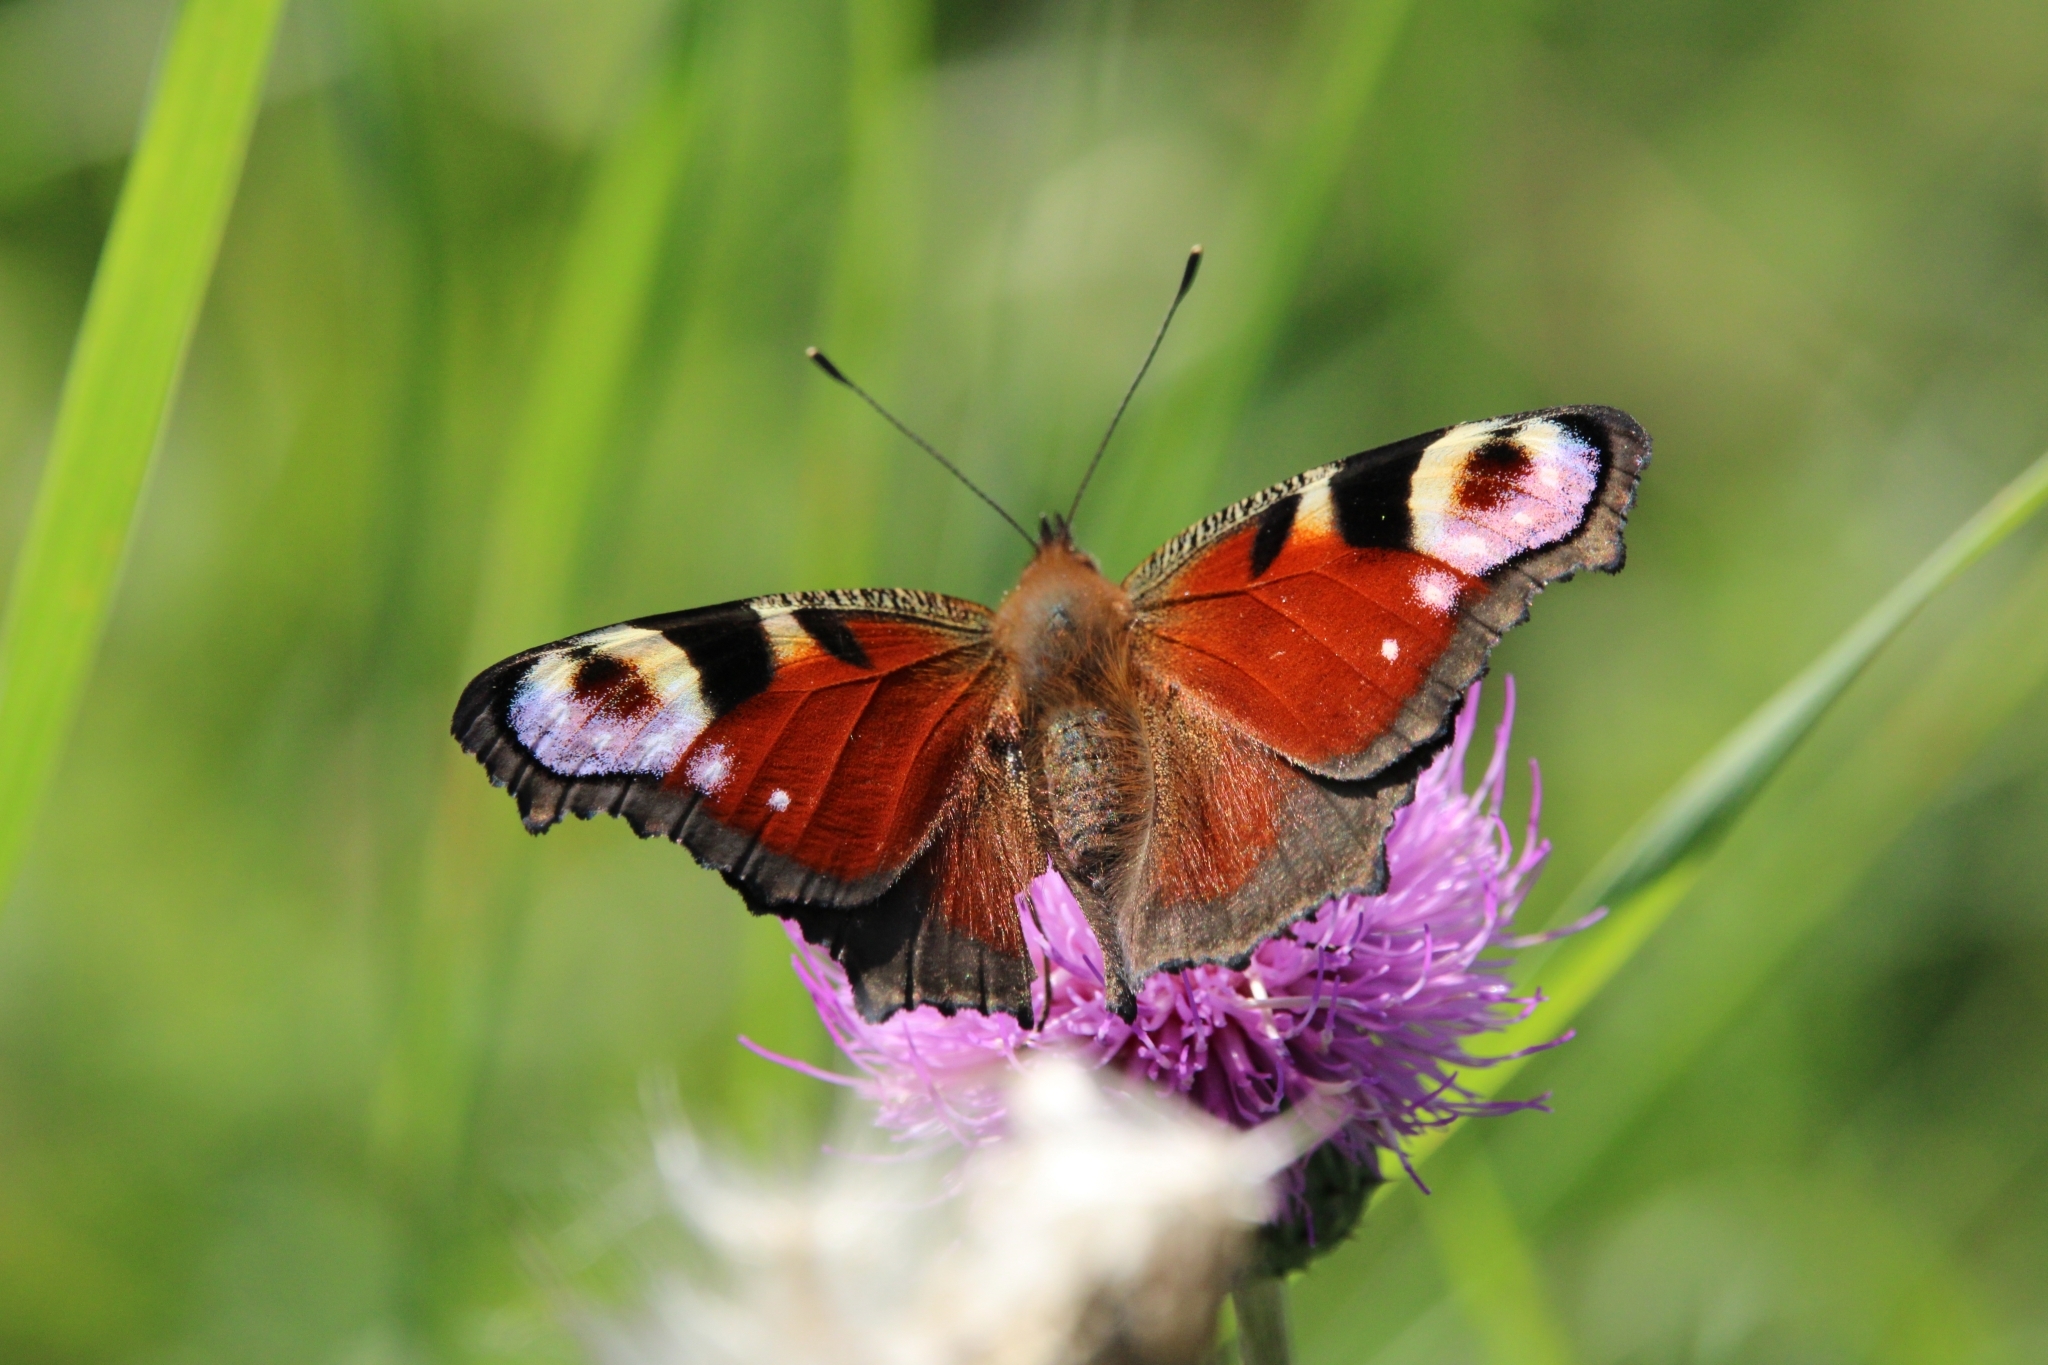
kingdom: Animalia
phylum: Arthropoda
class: Insecta
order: Lepidoptera
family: Nymphalidae
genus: Aglais
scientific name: Aglais io
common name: Peacock
